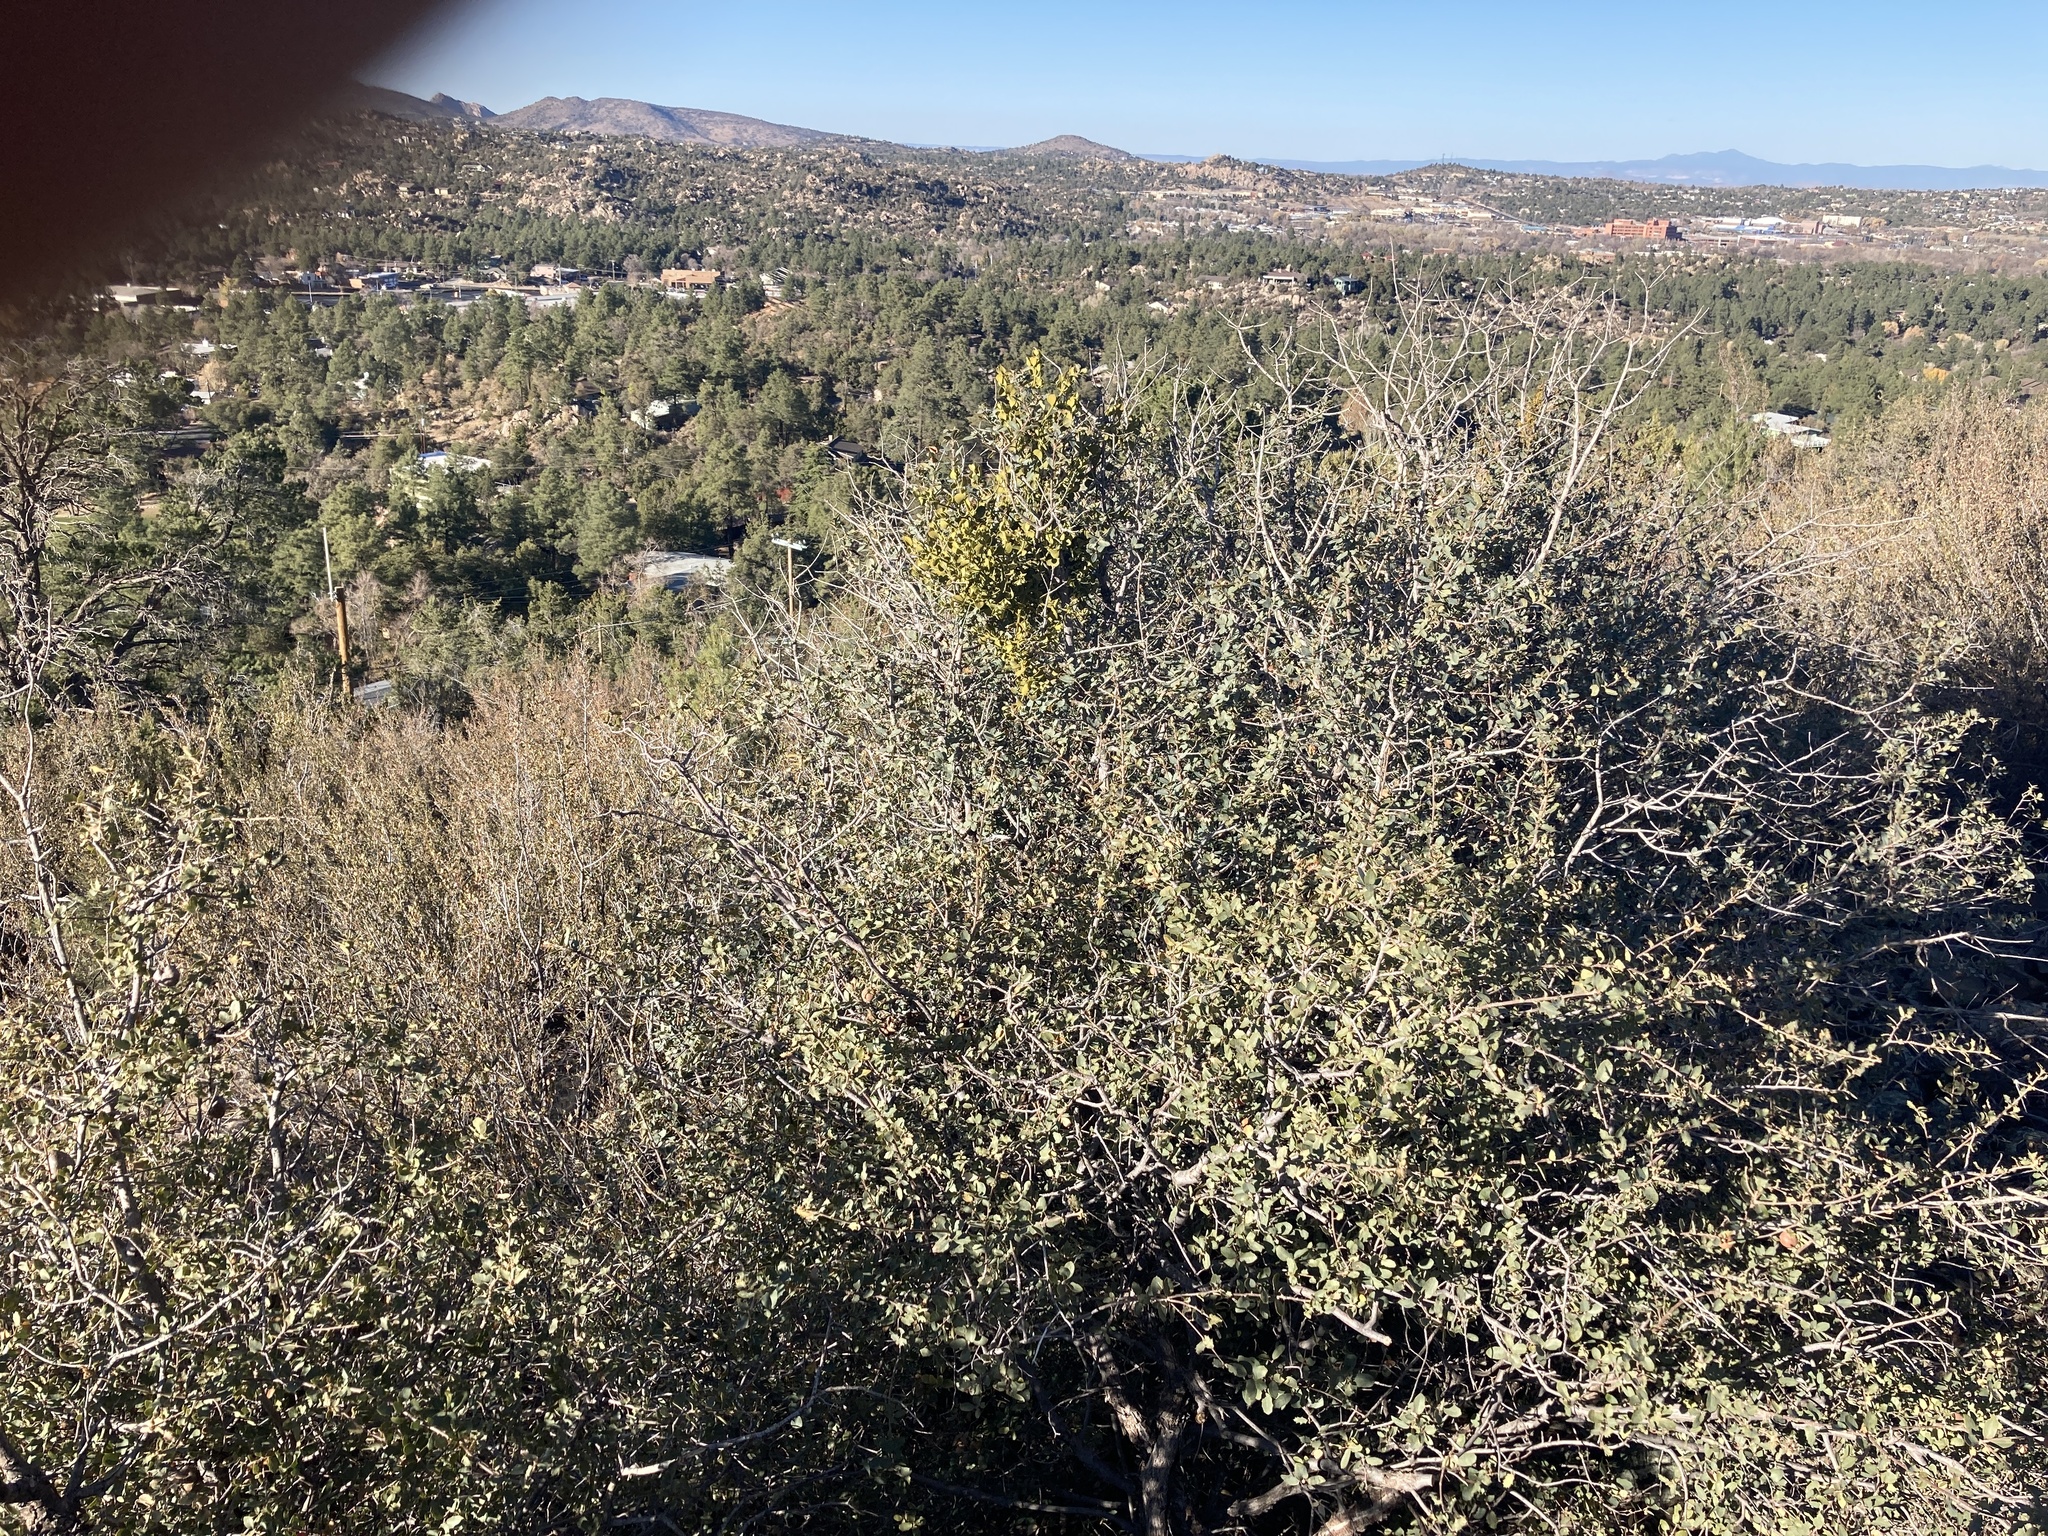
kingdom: Plantae
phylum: Tracheophyta
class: Magnoliopsida
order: Fagales
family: Fagaceae
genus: Quercus
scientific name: Quercus turbinella
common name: Sonoran scrub oak
